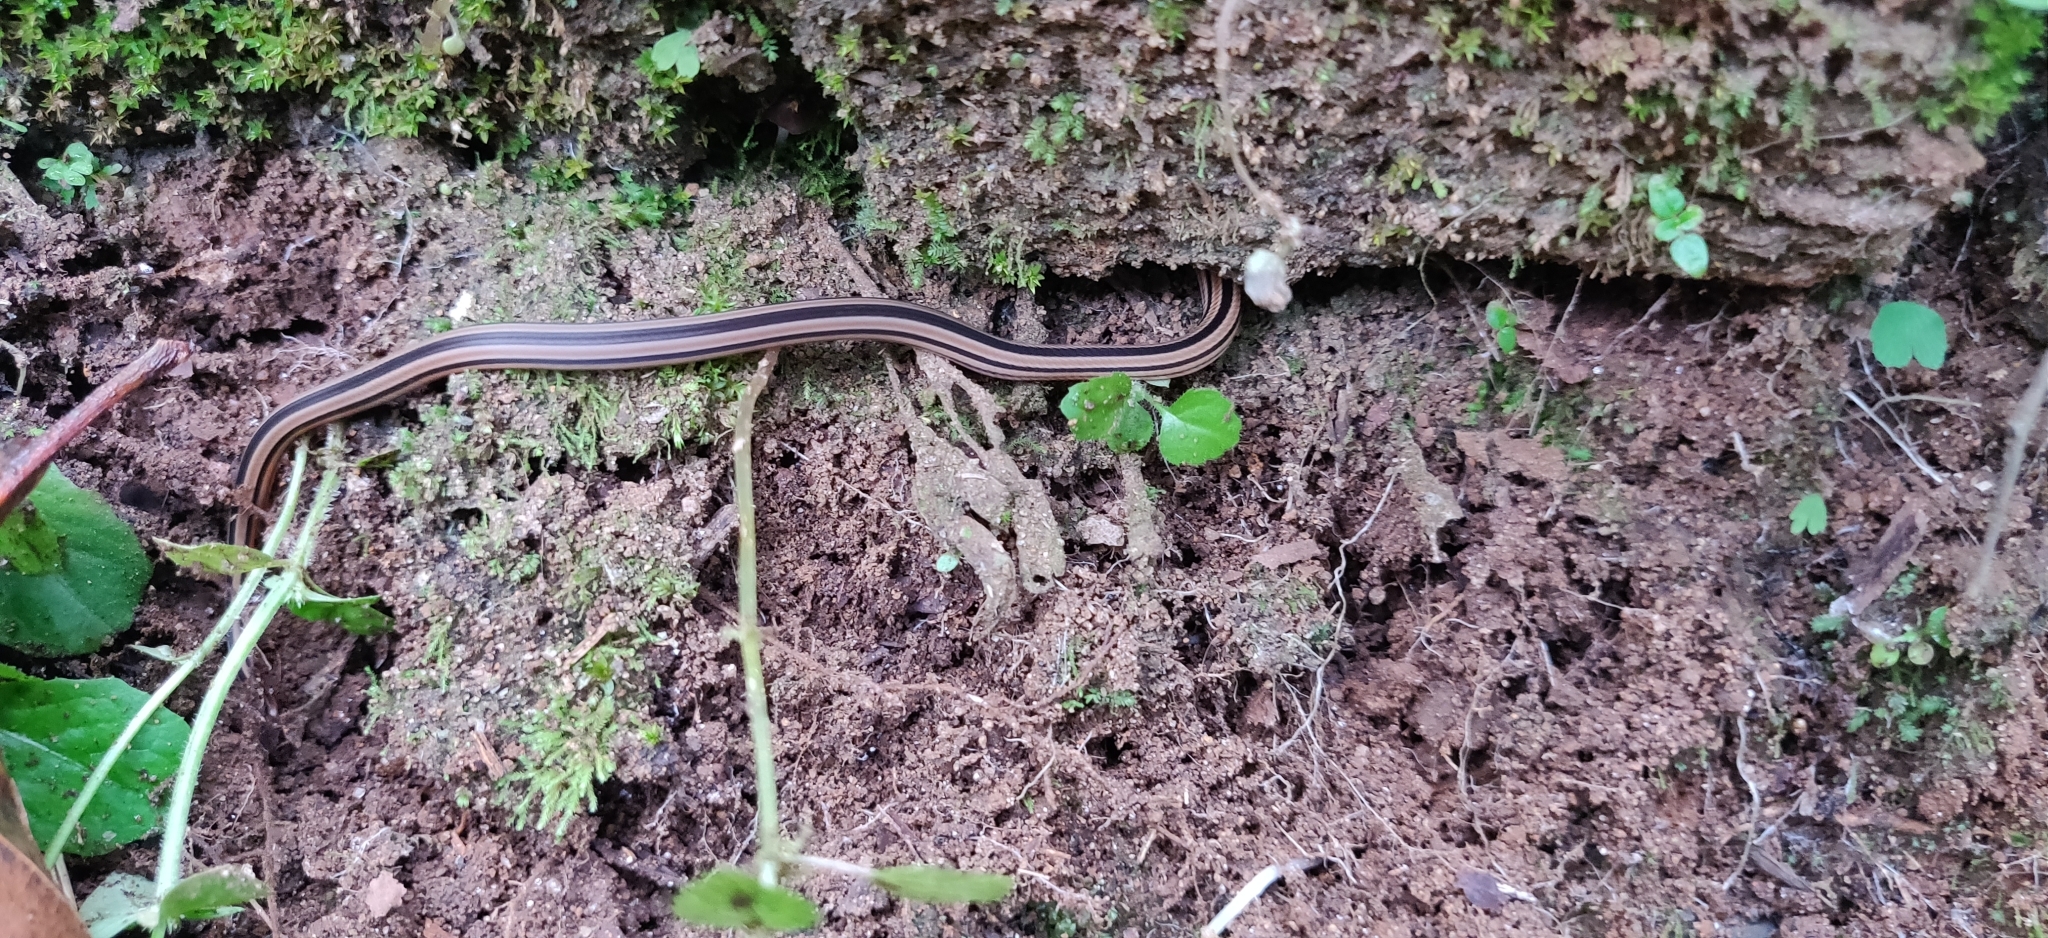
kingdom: Animalia
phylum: Chordata
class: Squamata
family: Elapidae
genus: Calliophis
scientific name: Calliophis nigrescens
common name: Black coral snake
